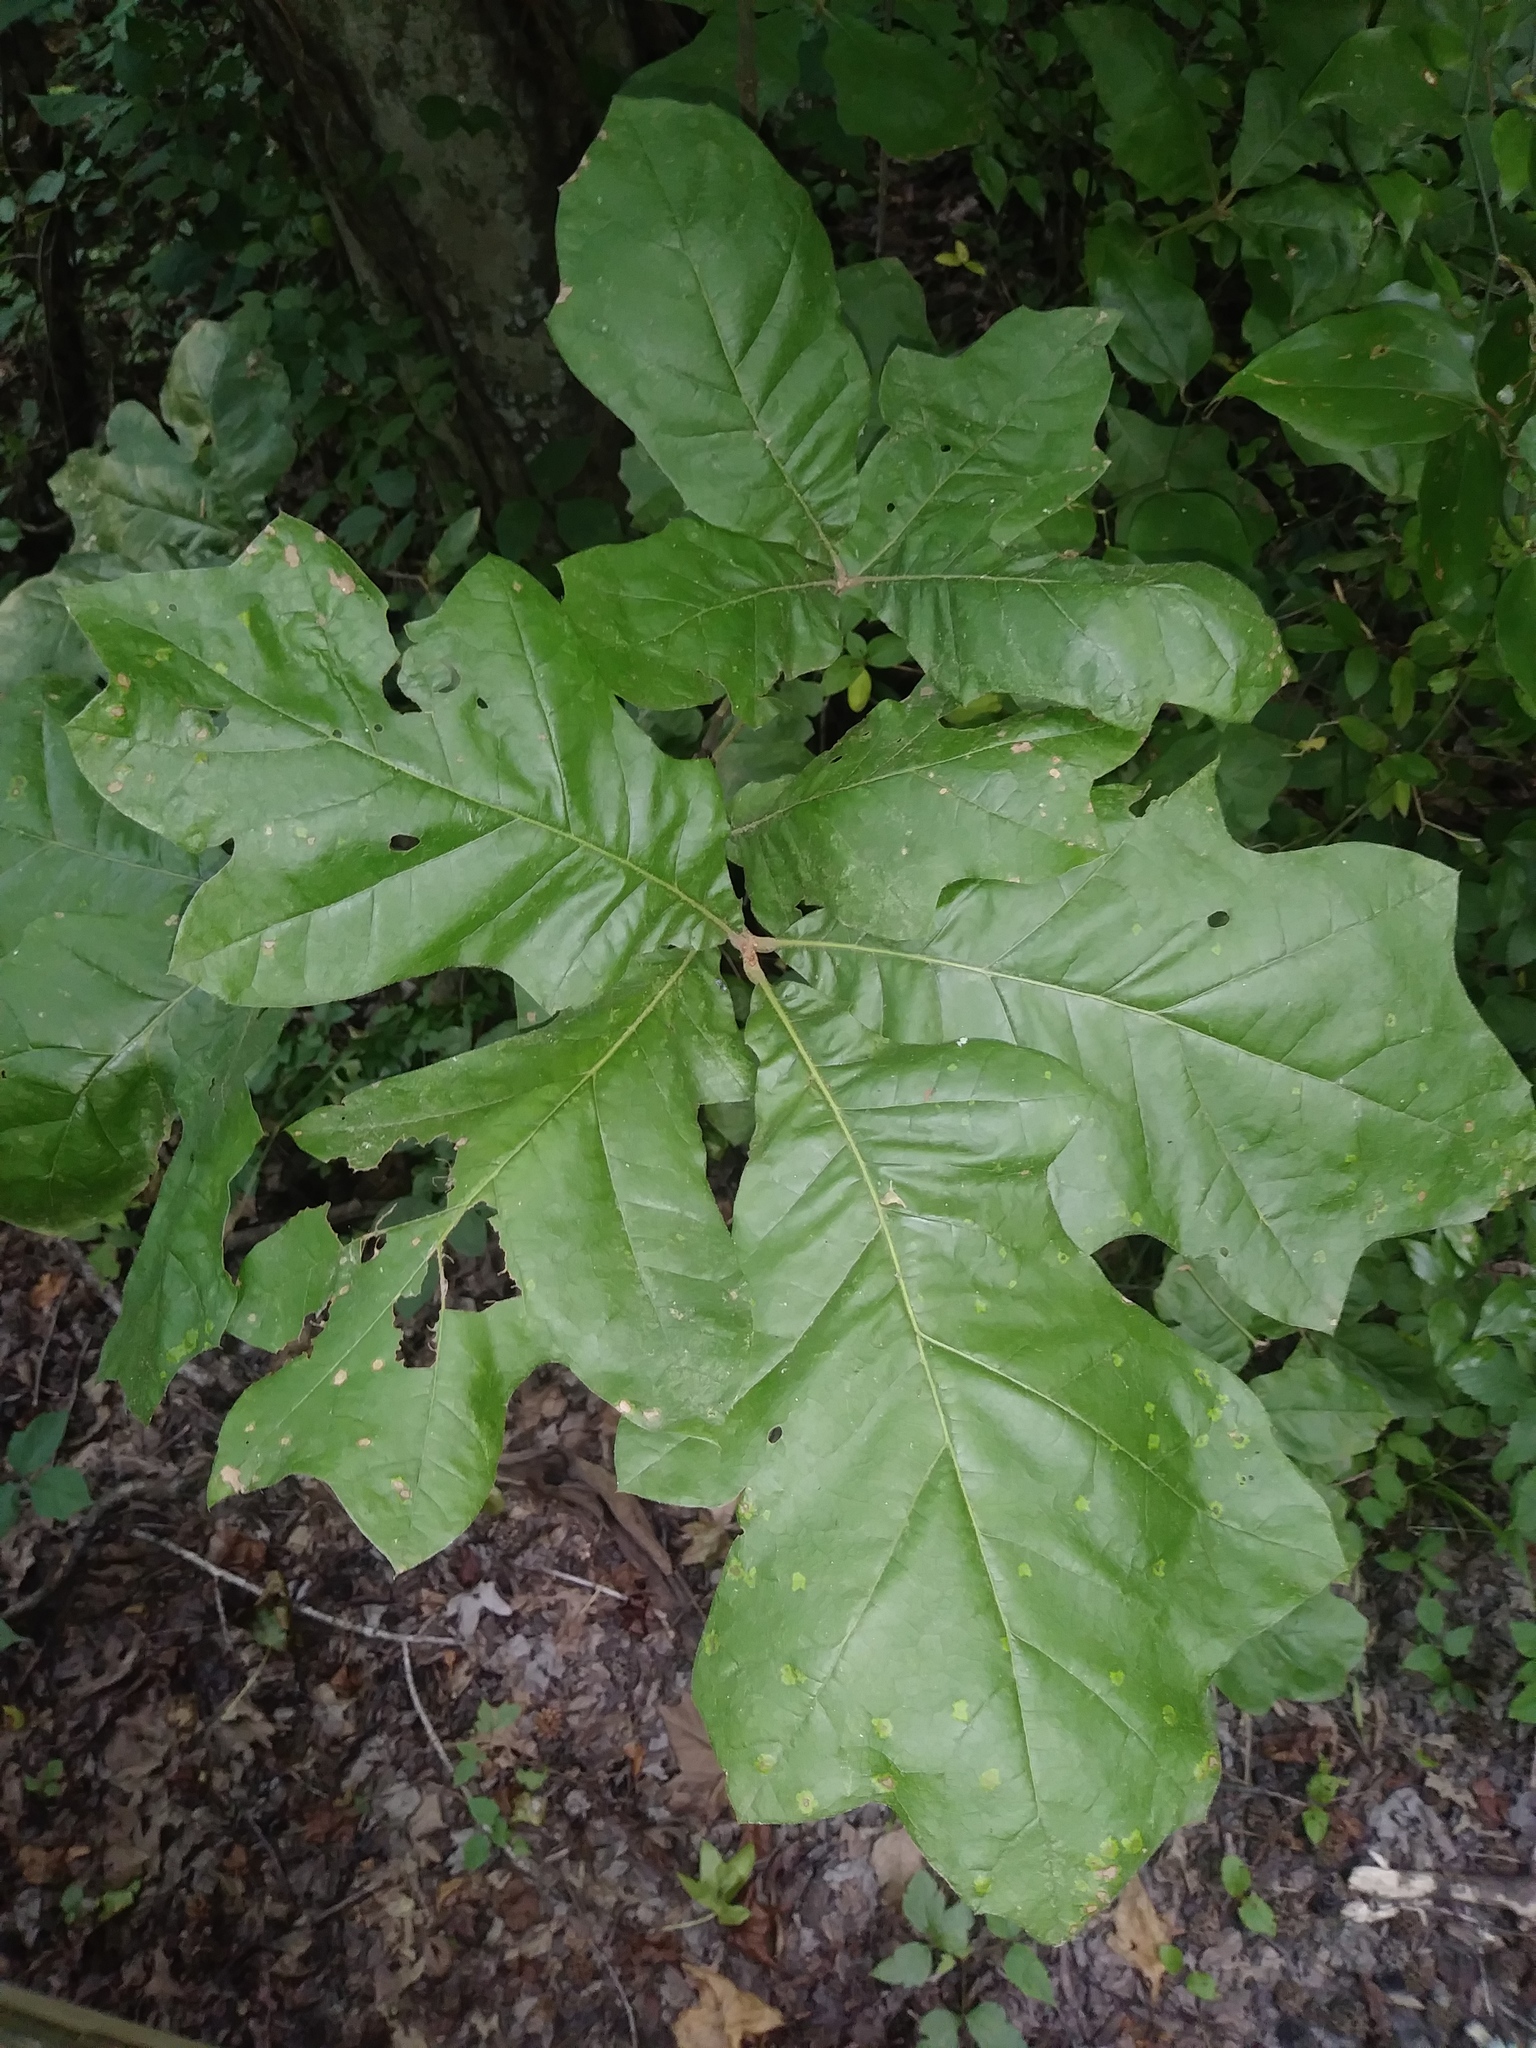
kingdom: Plantae
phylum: Tracheophyta
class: Magnoliopsida
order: Fagales
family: Fagaceae
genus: Quercus
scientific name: Quercus velutina
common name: Black oak
